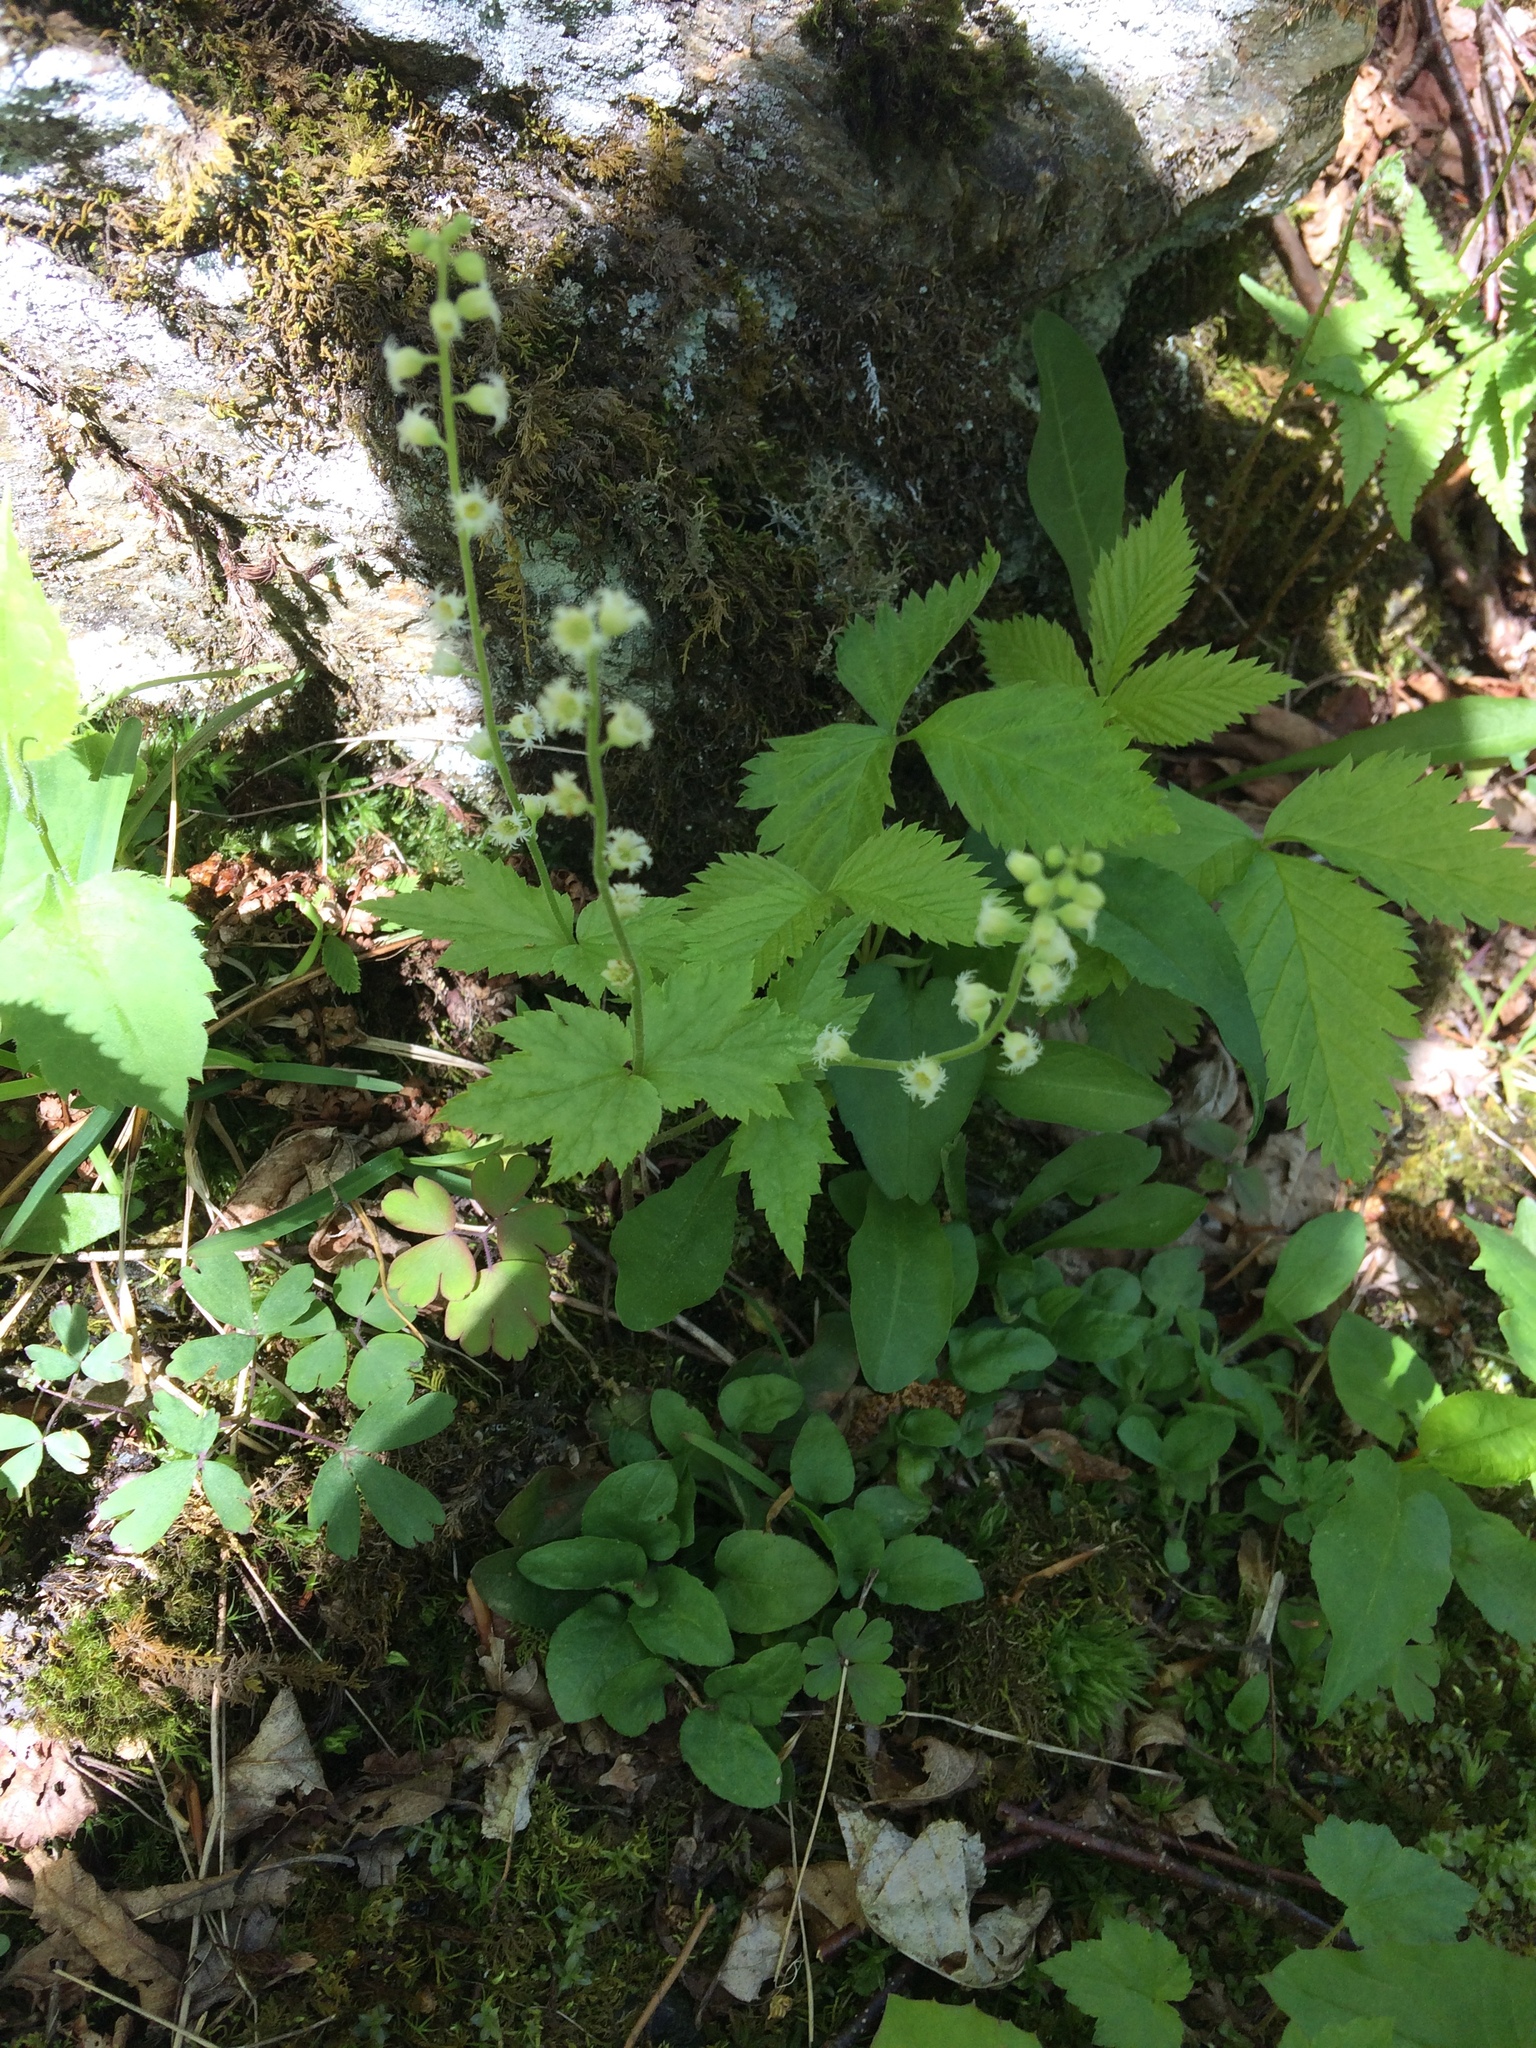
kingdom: Plantae
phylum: Tracheophyta
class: Magnoliopsida
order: Saxifragales
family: Saxifragaceae
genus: Mitella
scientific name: Mitella diphylla
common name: Coolwort
